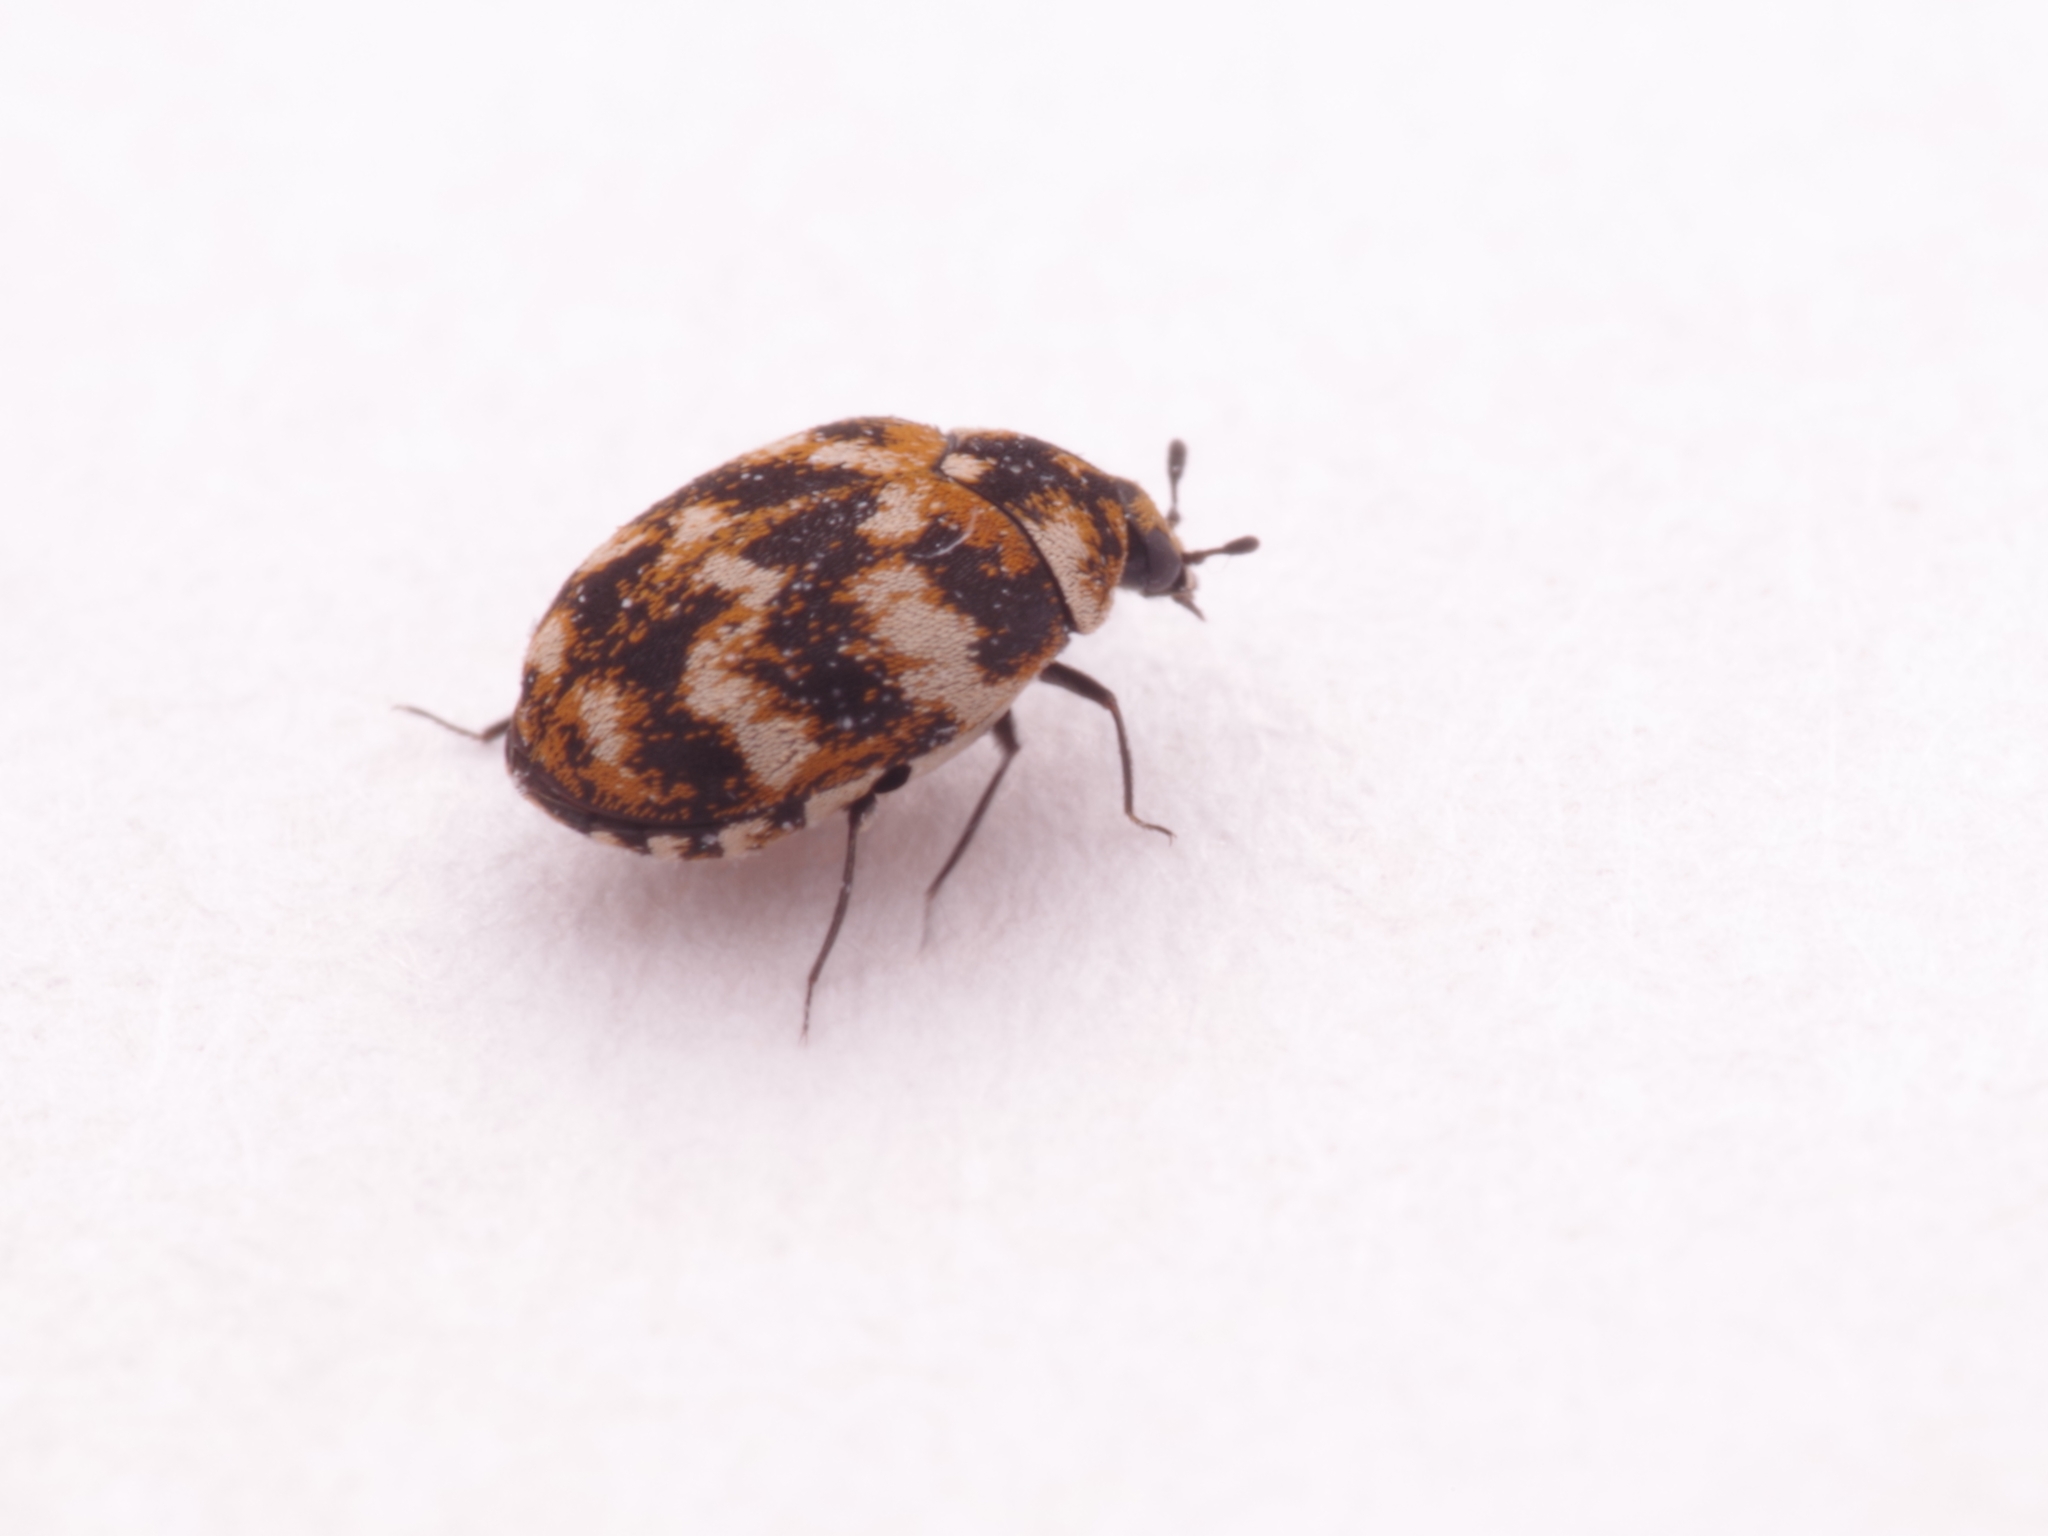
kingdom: Animalia
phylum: Arthropoda
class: Insecta
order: Coleoptera
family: Dermestidae
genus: Anthrenus
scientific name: Anthrenus verbasci
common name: Varied carpet beetle
